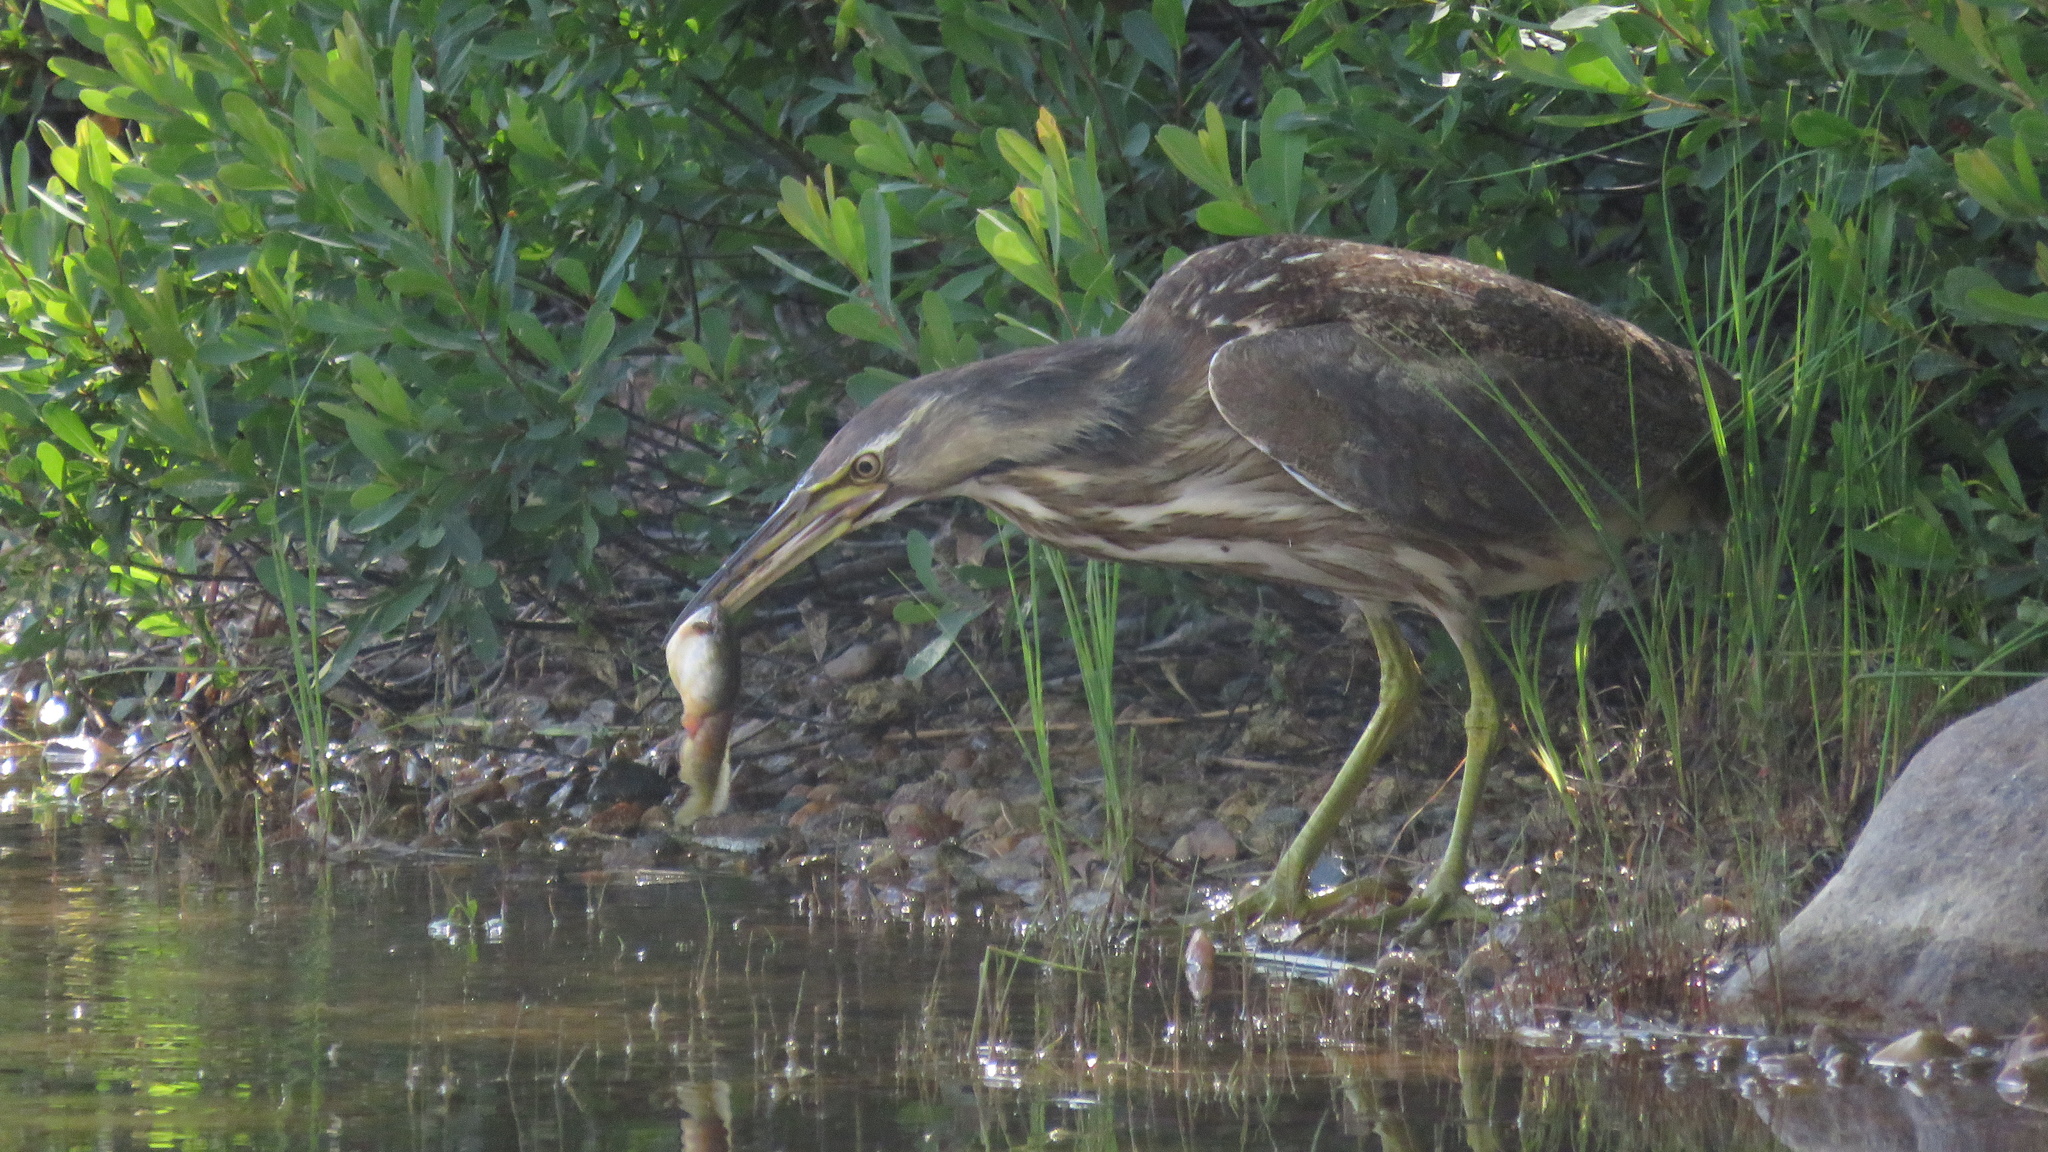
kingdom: Animalia
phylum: Chordata
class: Aves
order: Pelecaniformes
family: Ardeidae
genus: Botaurus
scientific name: Botaurus lentiginosus
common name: American bittern
